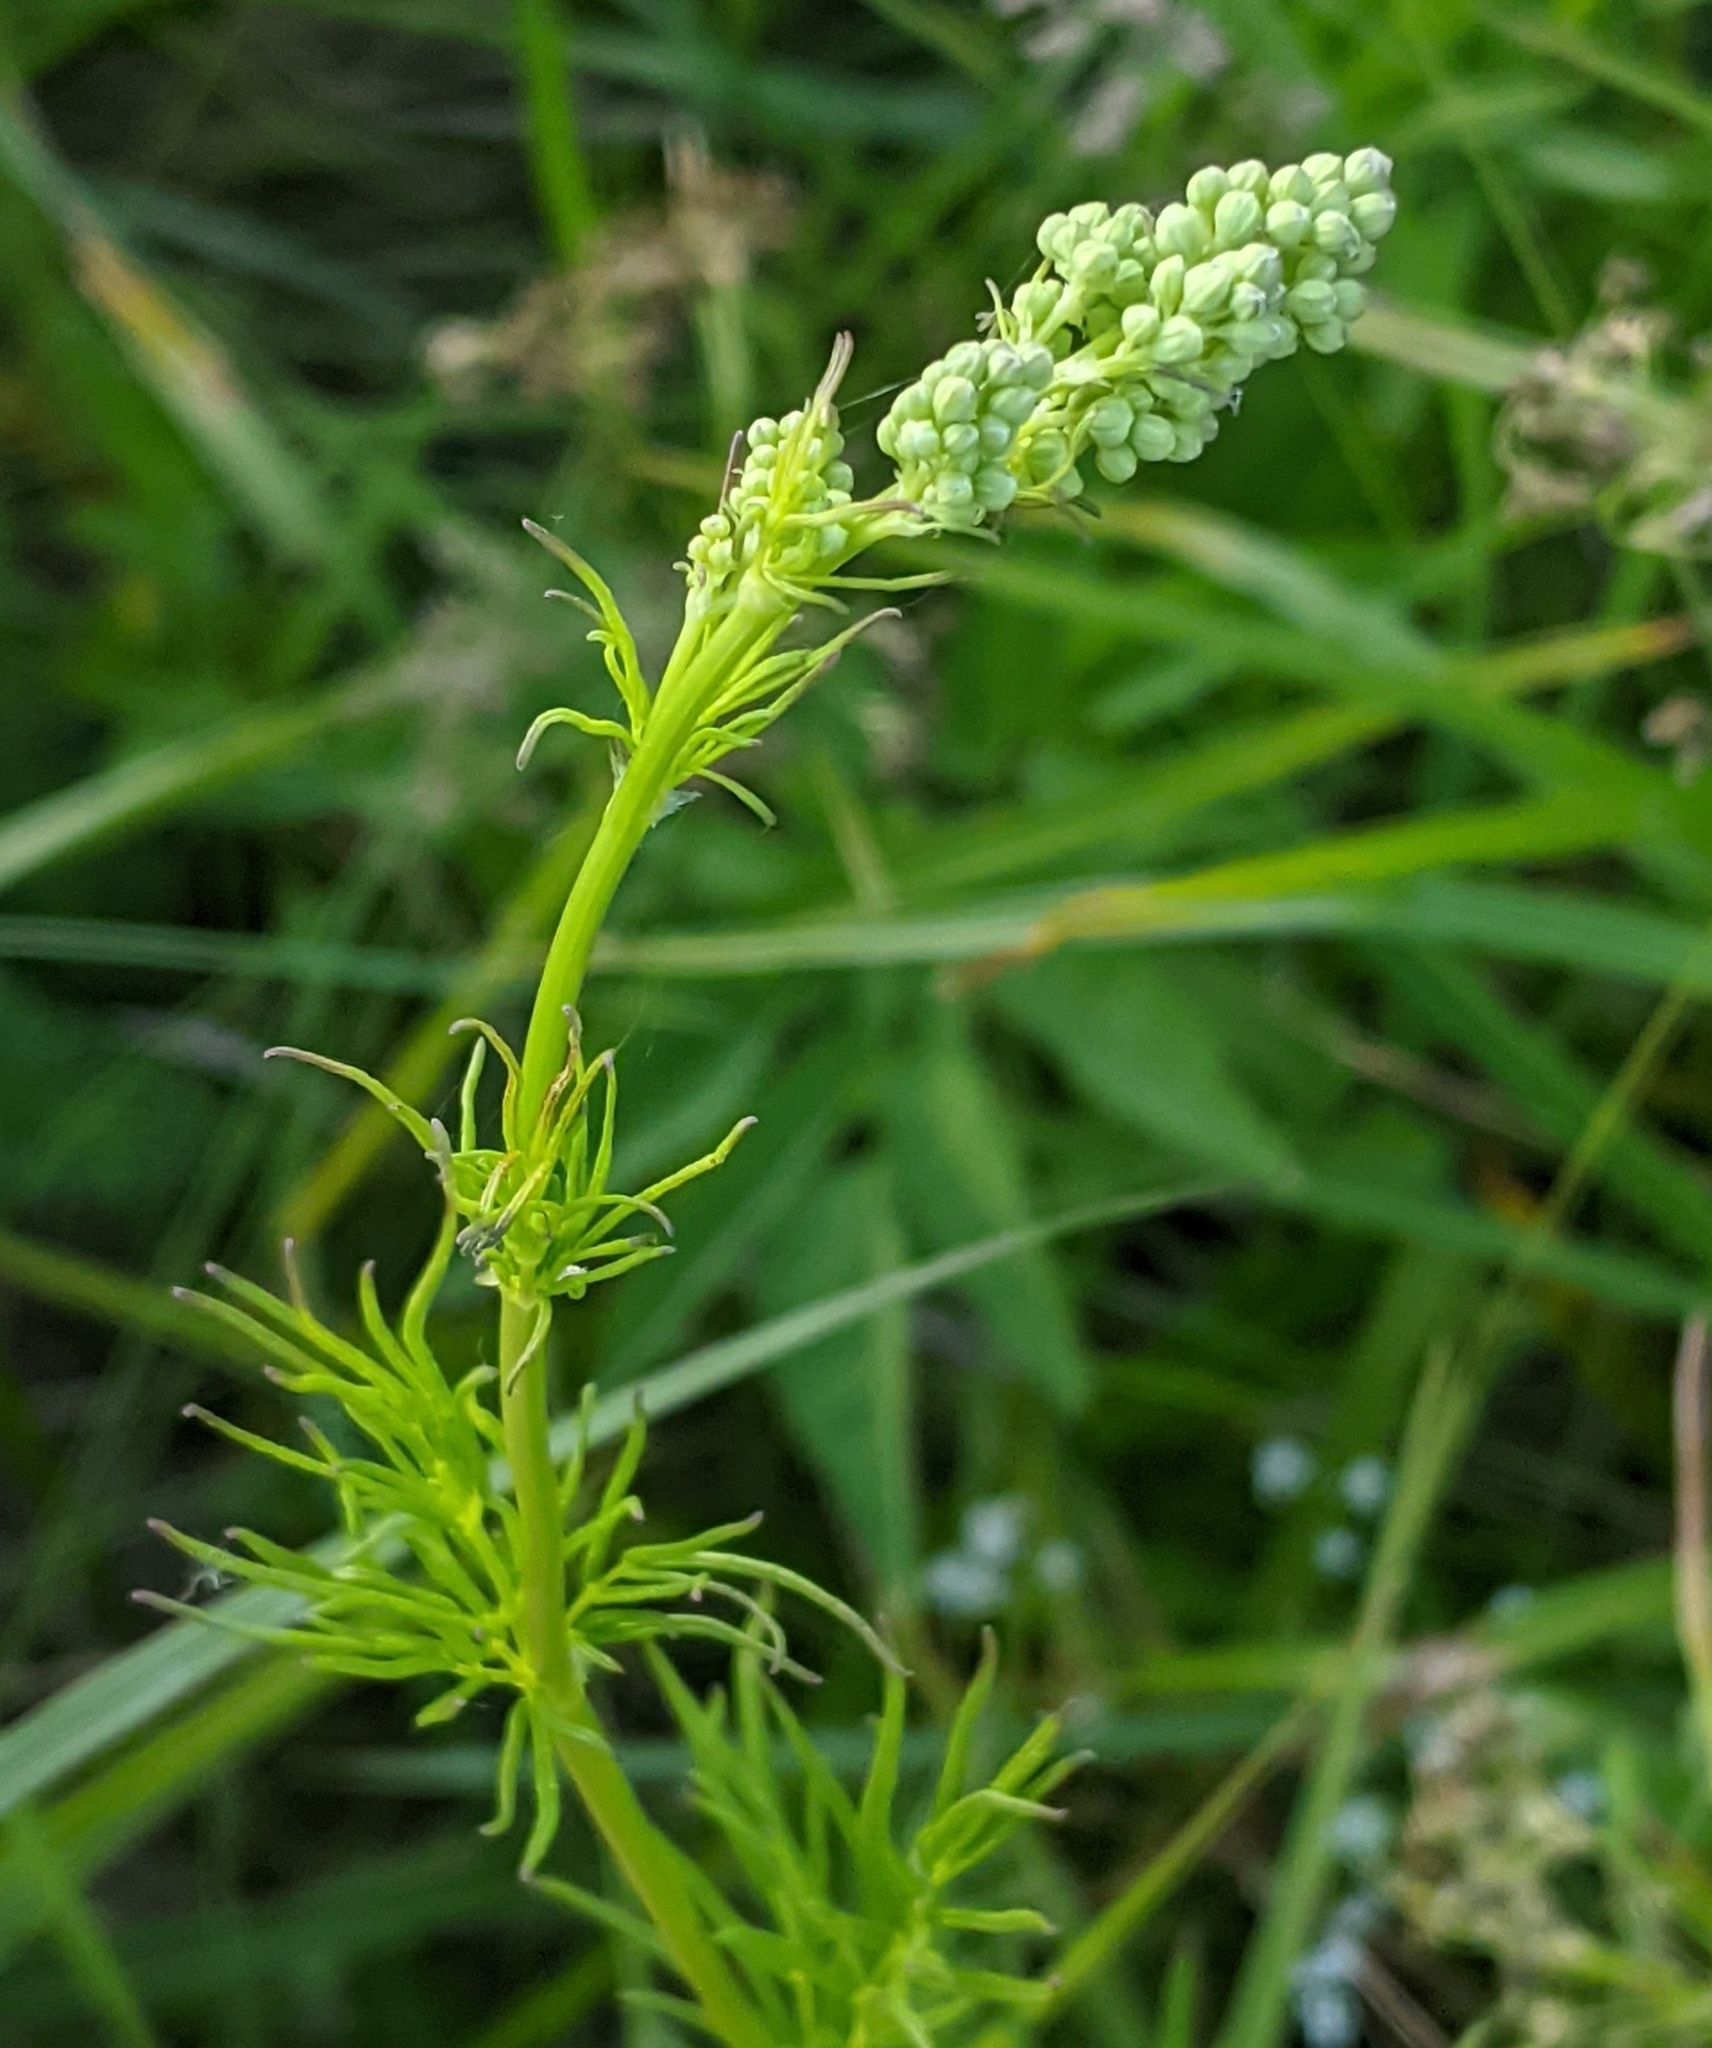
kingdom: Plantae
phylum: Tracheophyta
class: Magnoliopsida
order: Ranunculales
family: Ranunculaceae
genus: Thalictrum
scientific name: Thalictrum lucidum
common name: Shining meadow-rue
